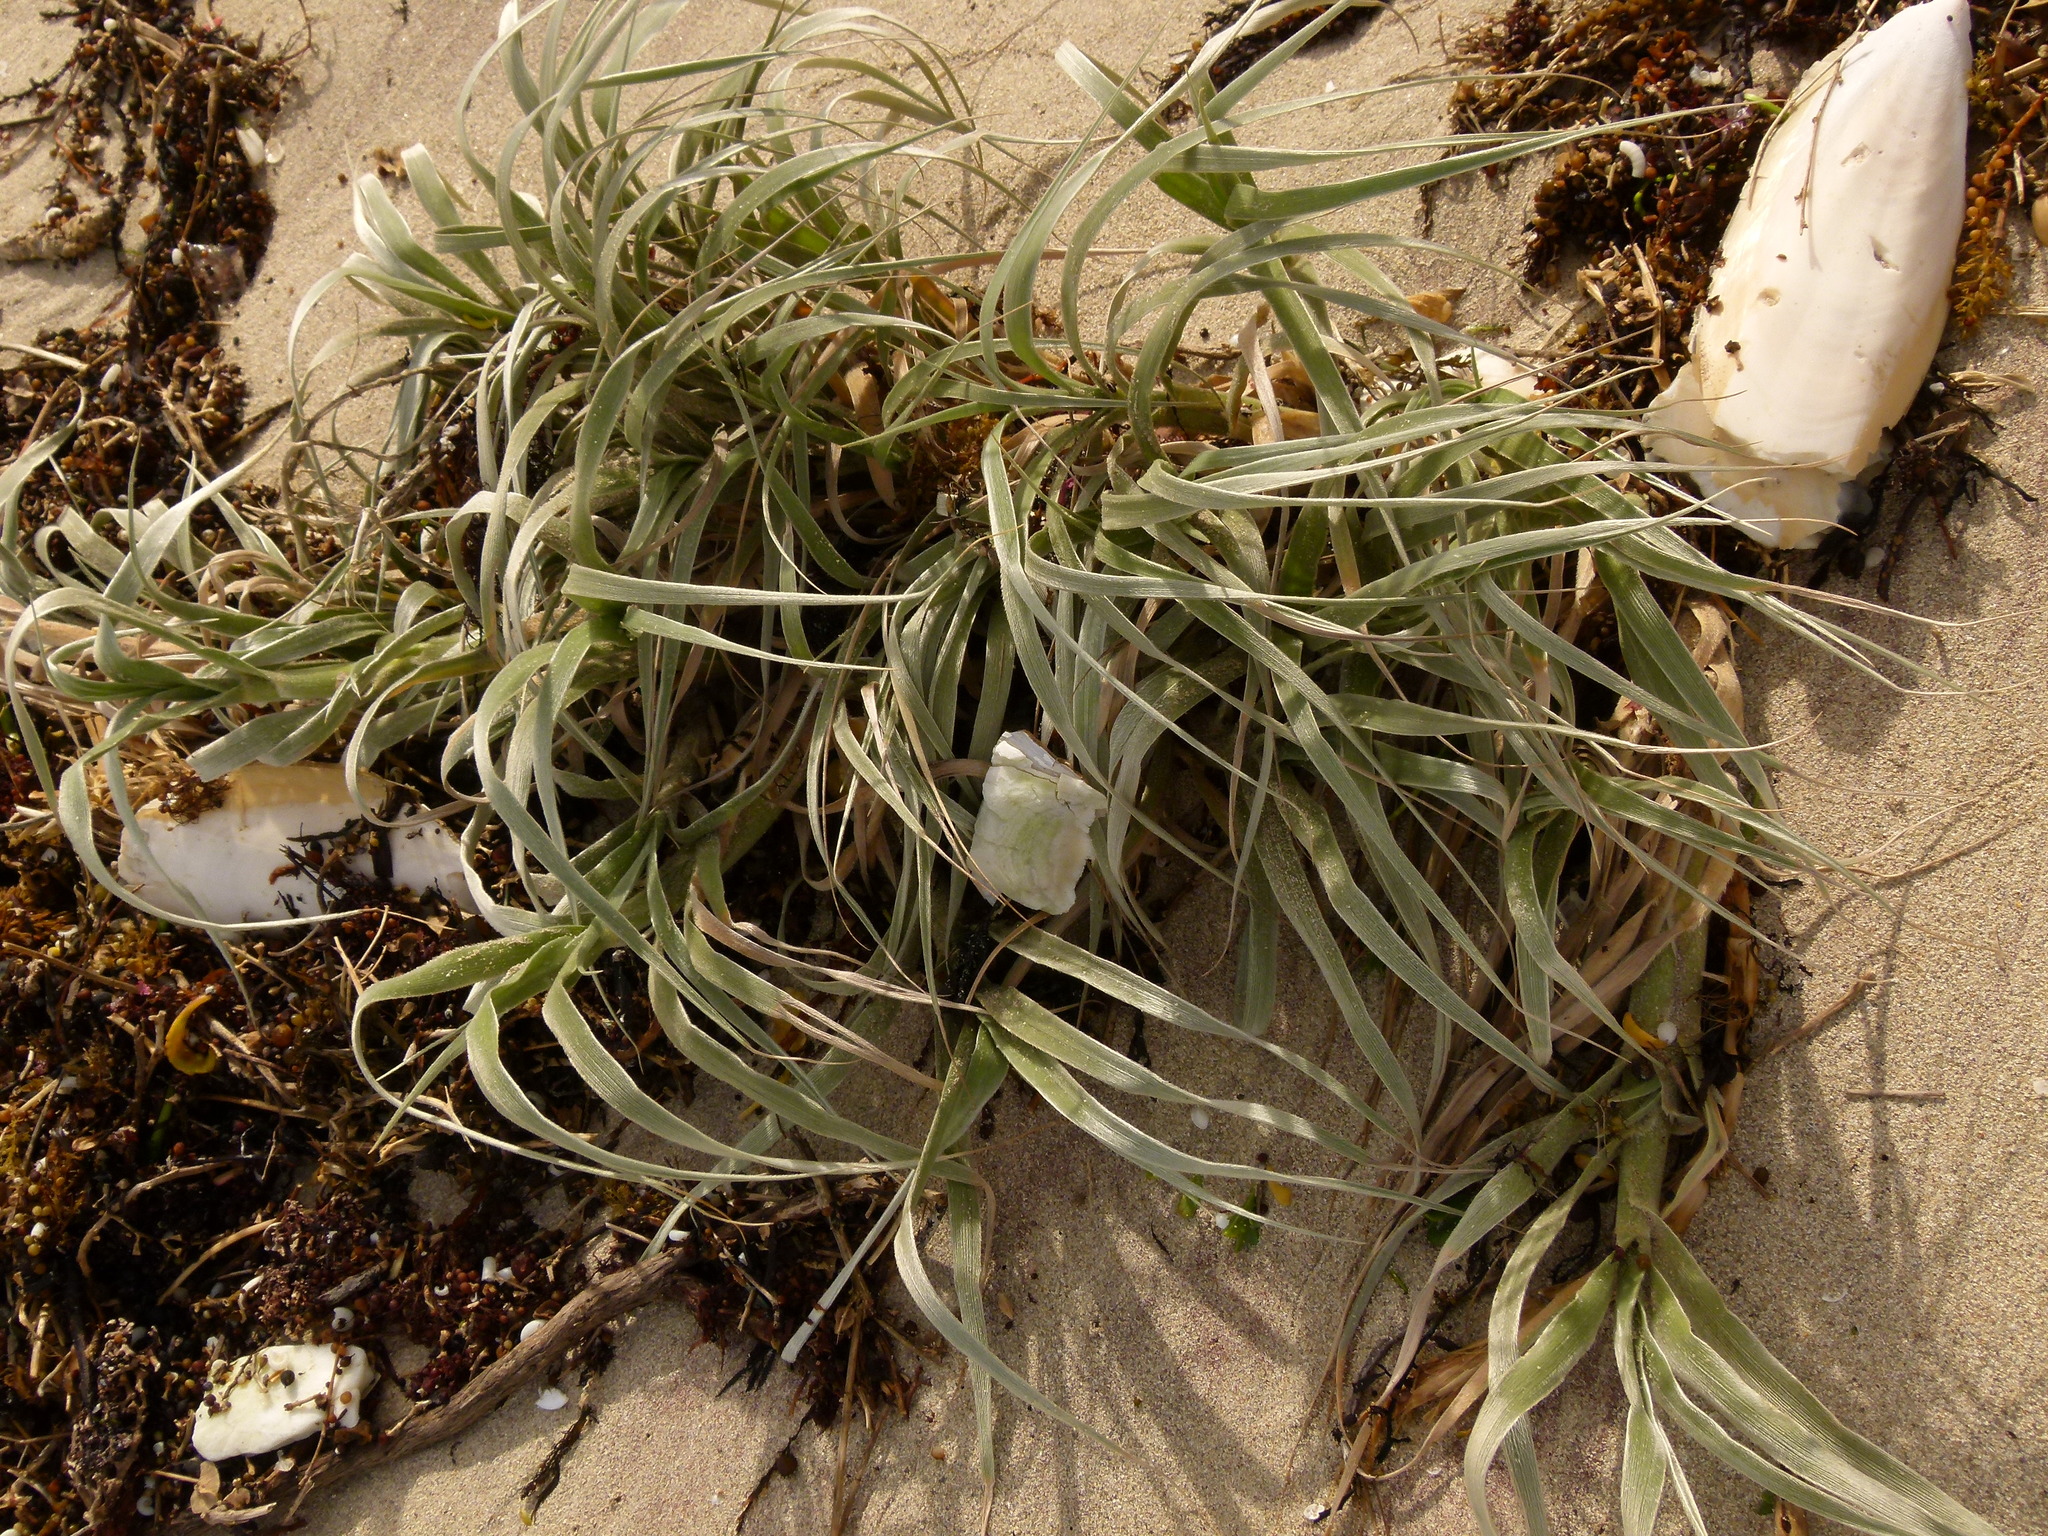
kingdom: Plantae
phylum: Tracheophyta
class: Liliopsida
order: Poales
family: Poaceae
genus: Spinifex
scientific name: Spinifex hirsutus
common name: Hairy spinifex
